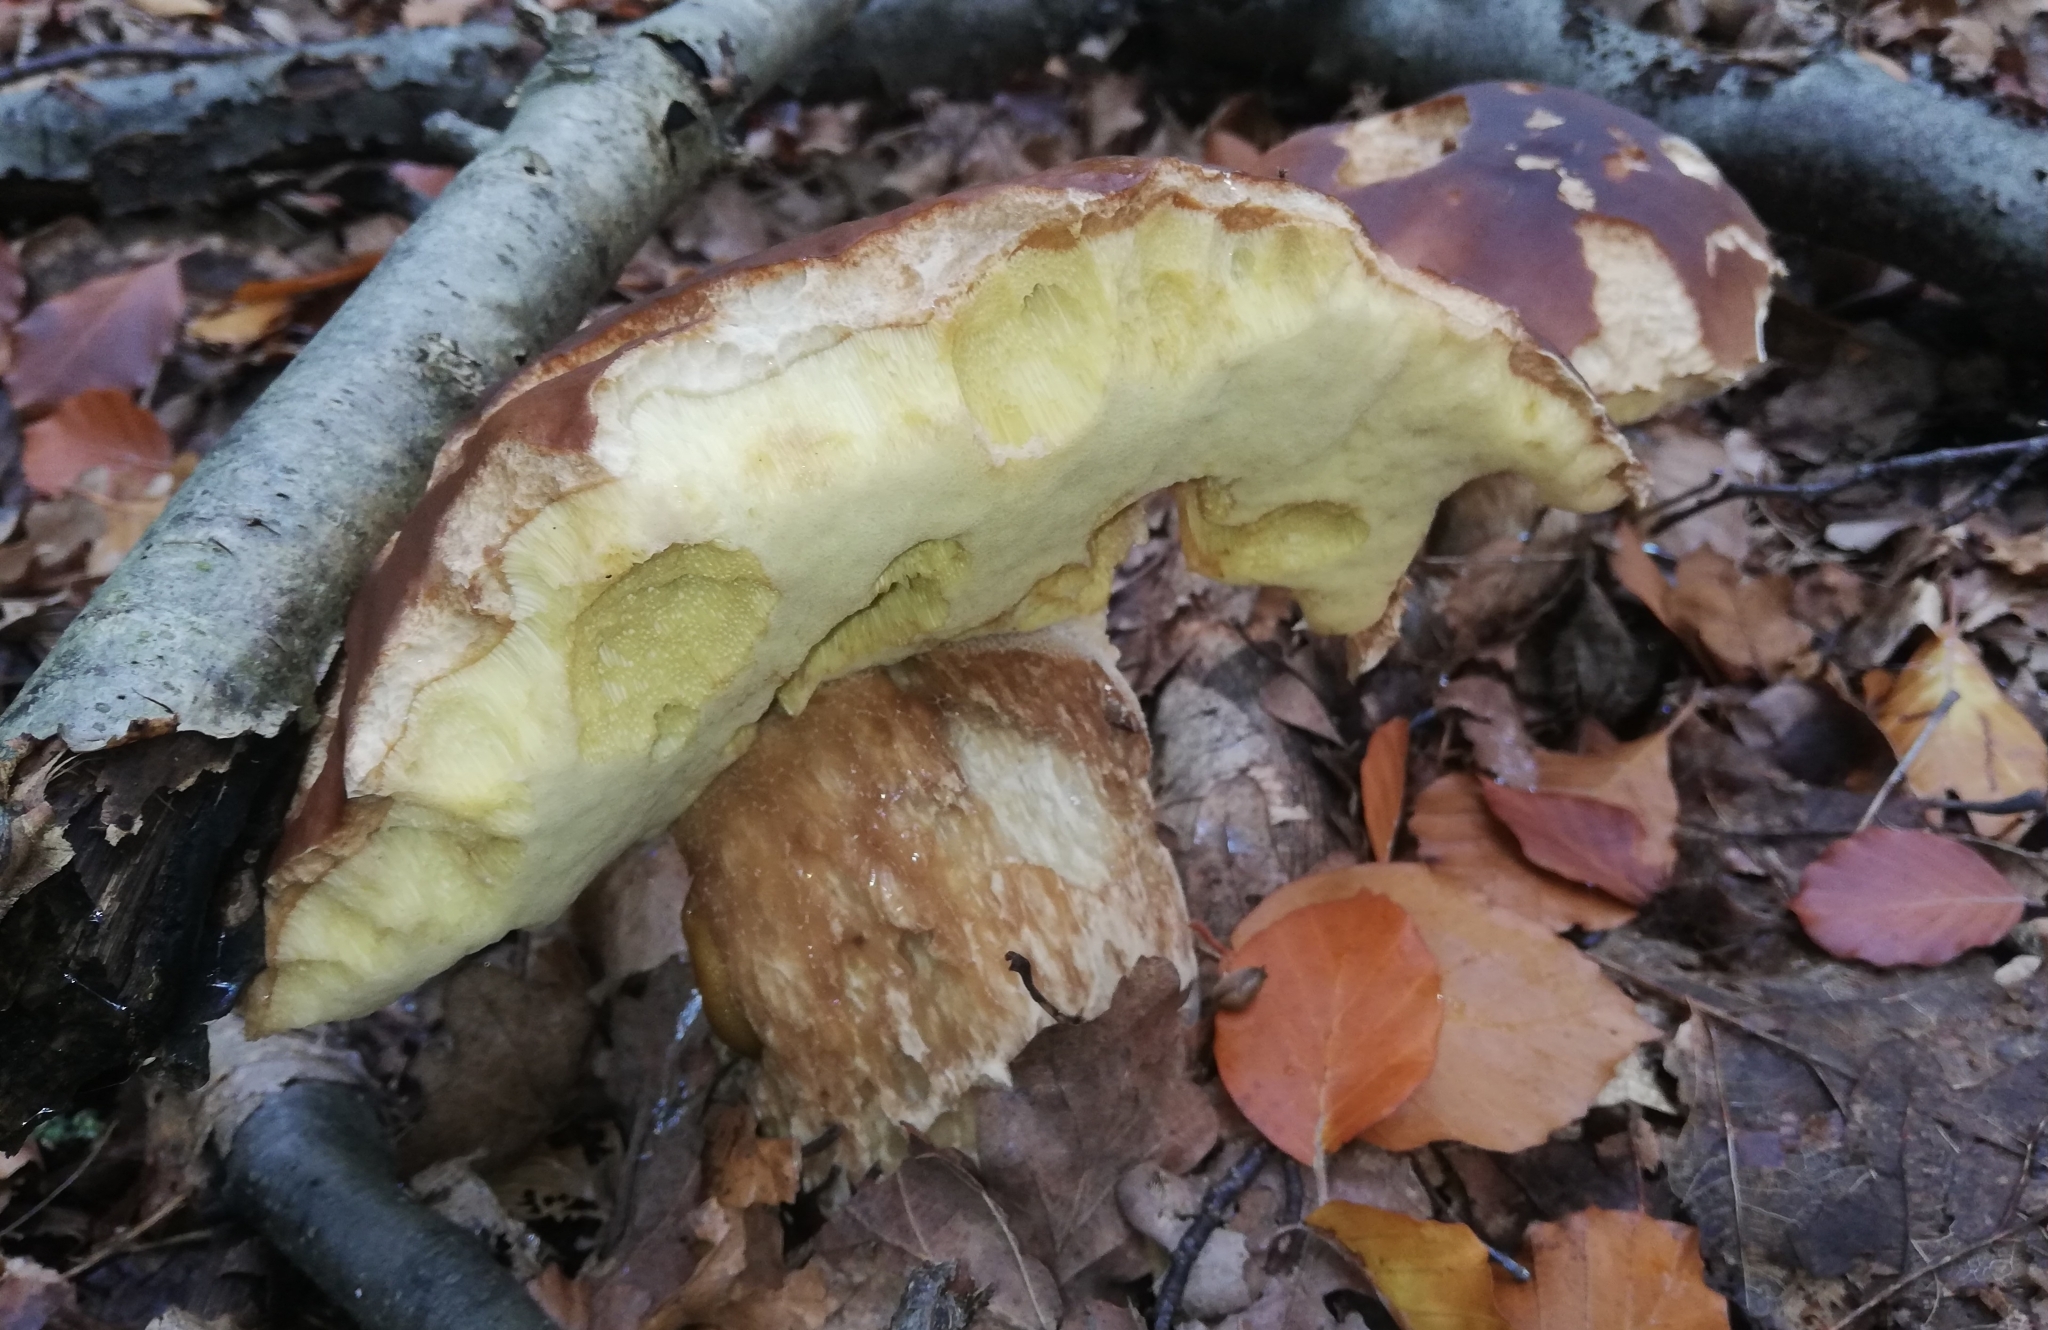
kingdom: Animalia
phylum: Mollusca
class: Gastropoda
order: Stylommatophora
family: Limacidae
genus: Malacolimax
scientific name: Malacolimax tenellus
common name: Lemon slug
